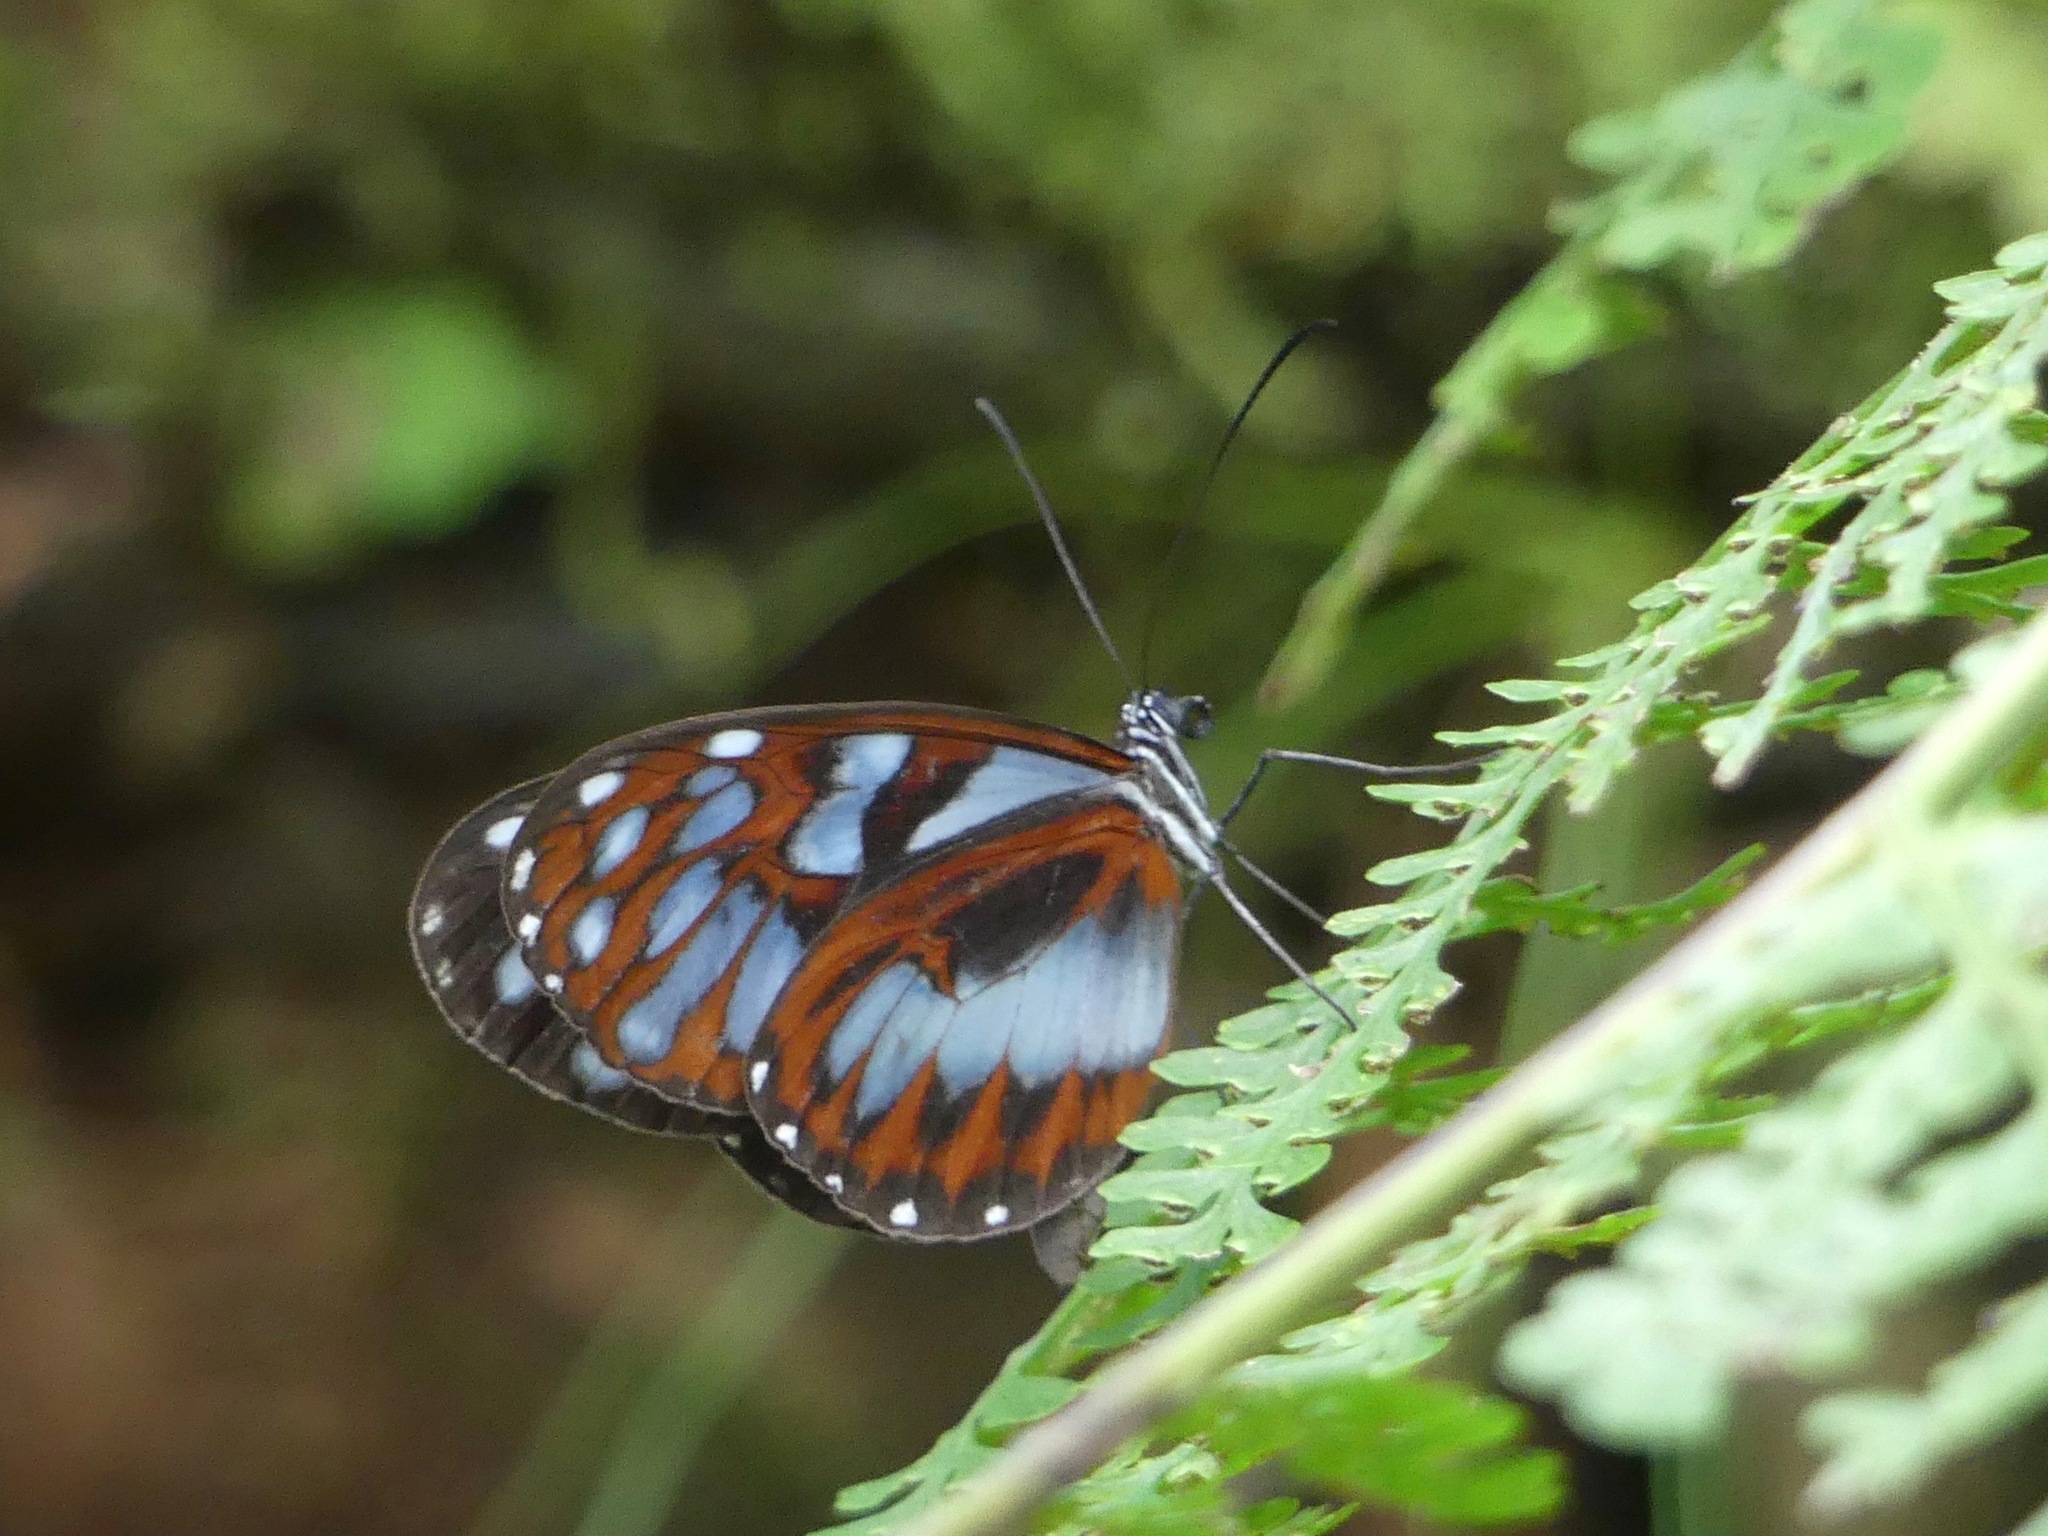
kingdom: Animalia
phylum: Arthropoda
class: Insecta
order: Lepidoptera
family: Nymphalidae
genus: Oleria
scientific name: Oleria cyrene
